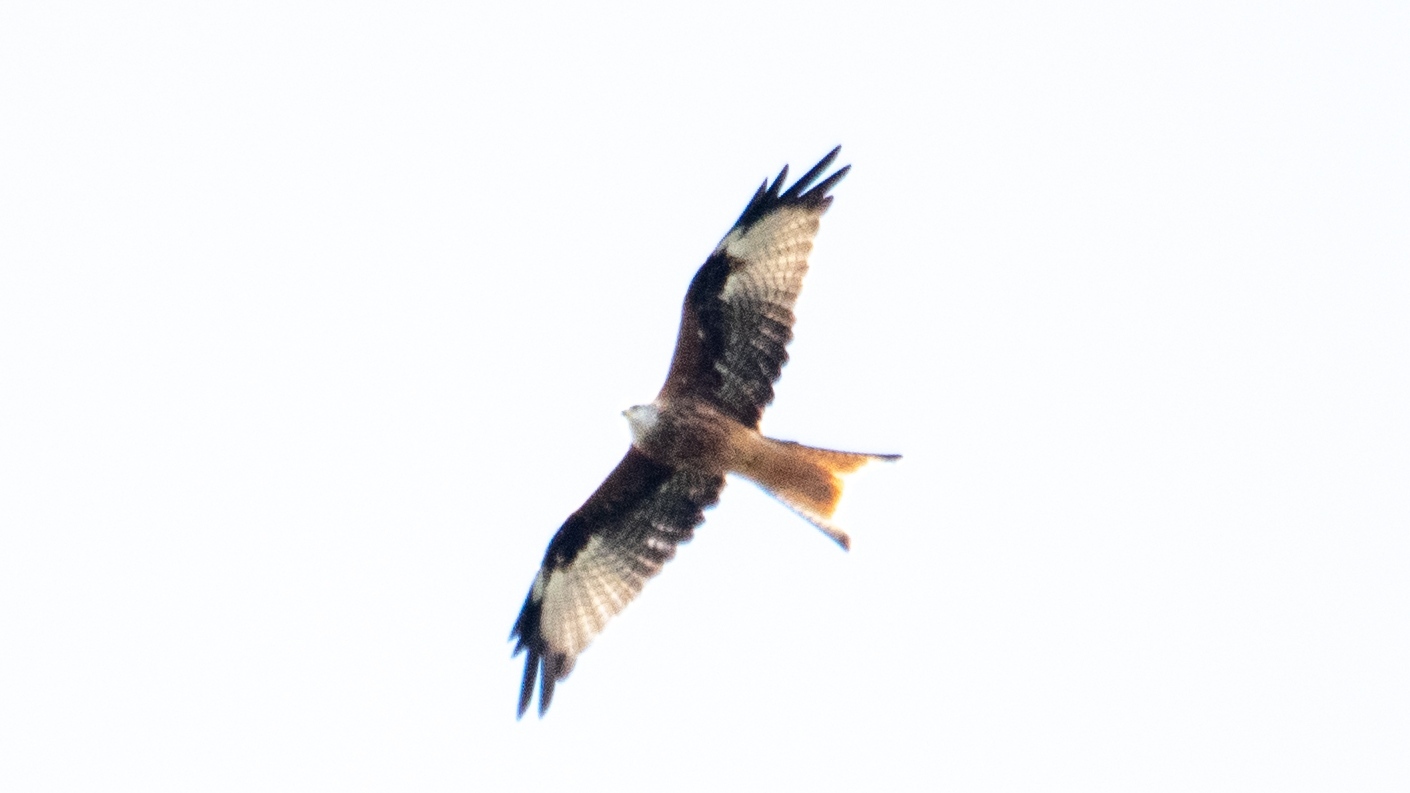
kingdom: Animalia
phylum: Chordata
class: Aves
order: Accipitriformes
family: Accipitridae
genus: Milvus
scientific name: Milvus milvus
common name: Red kite
